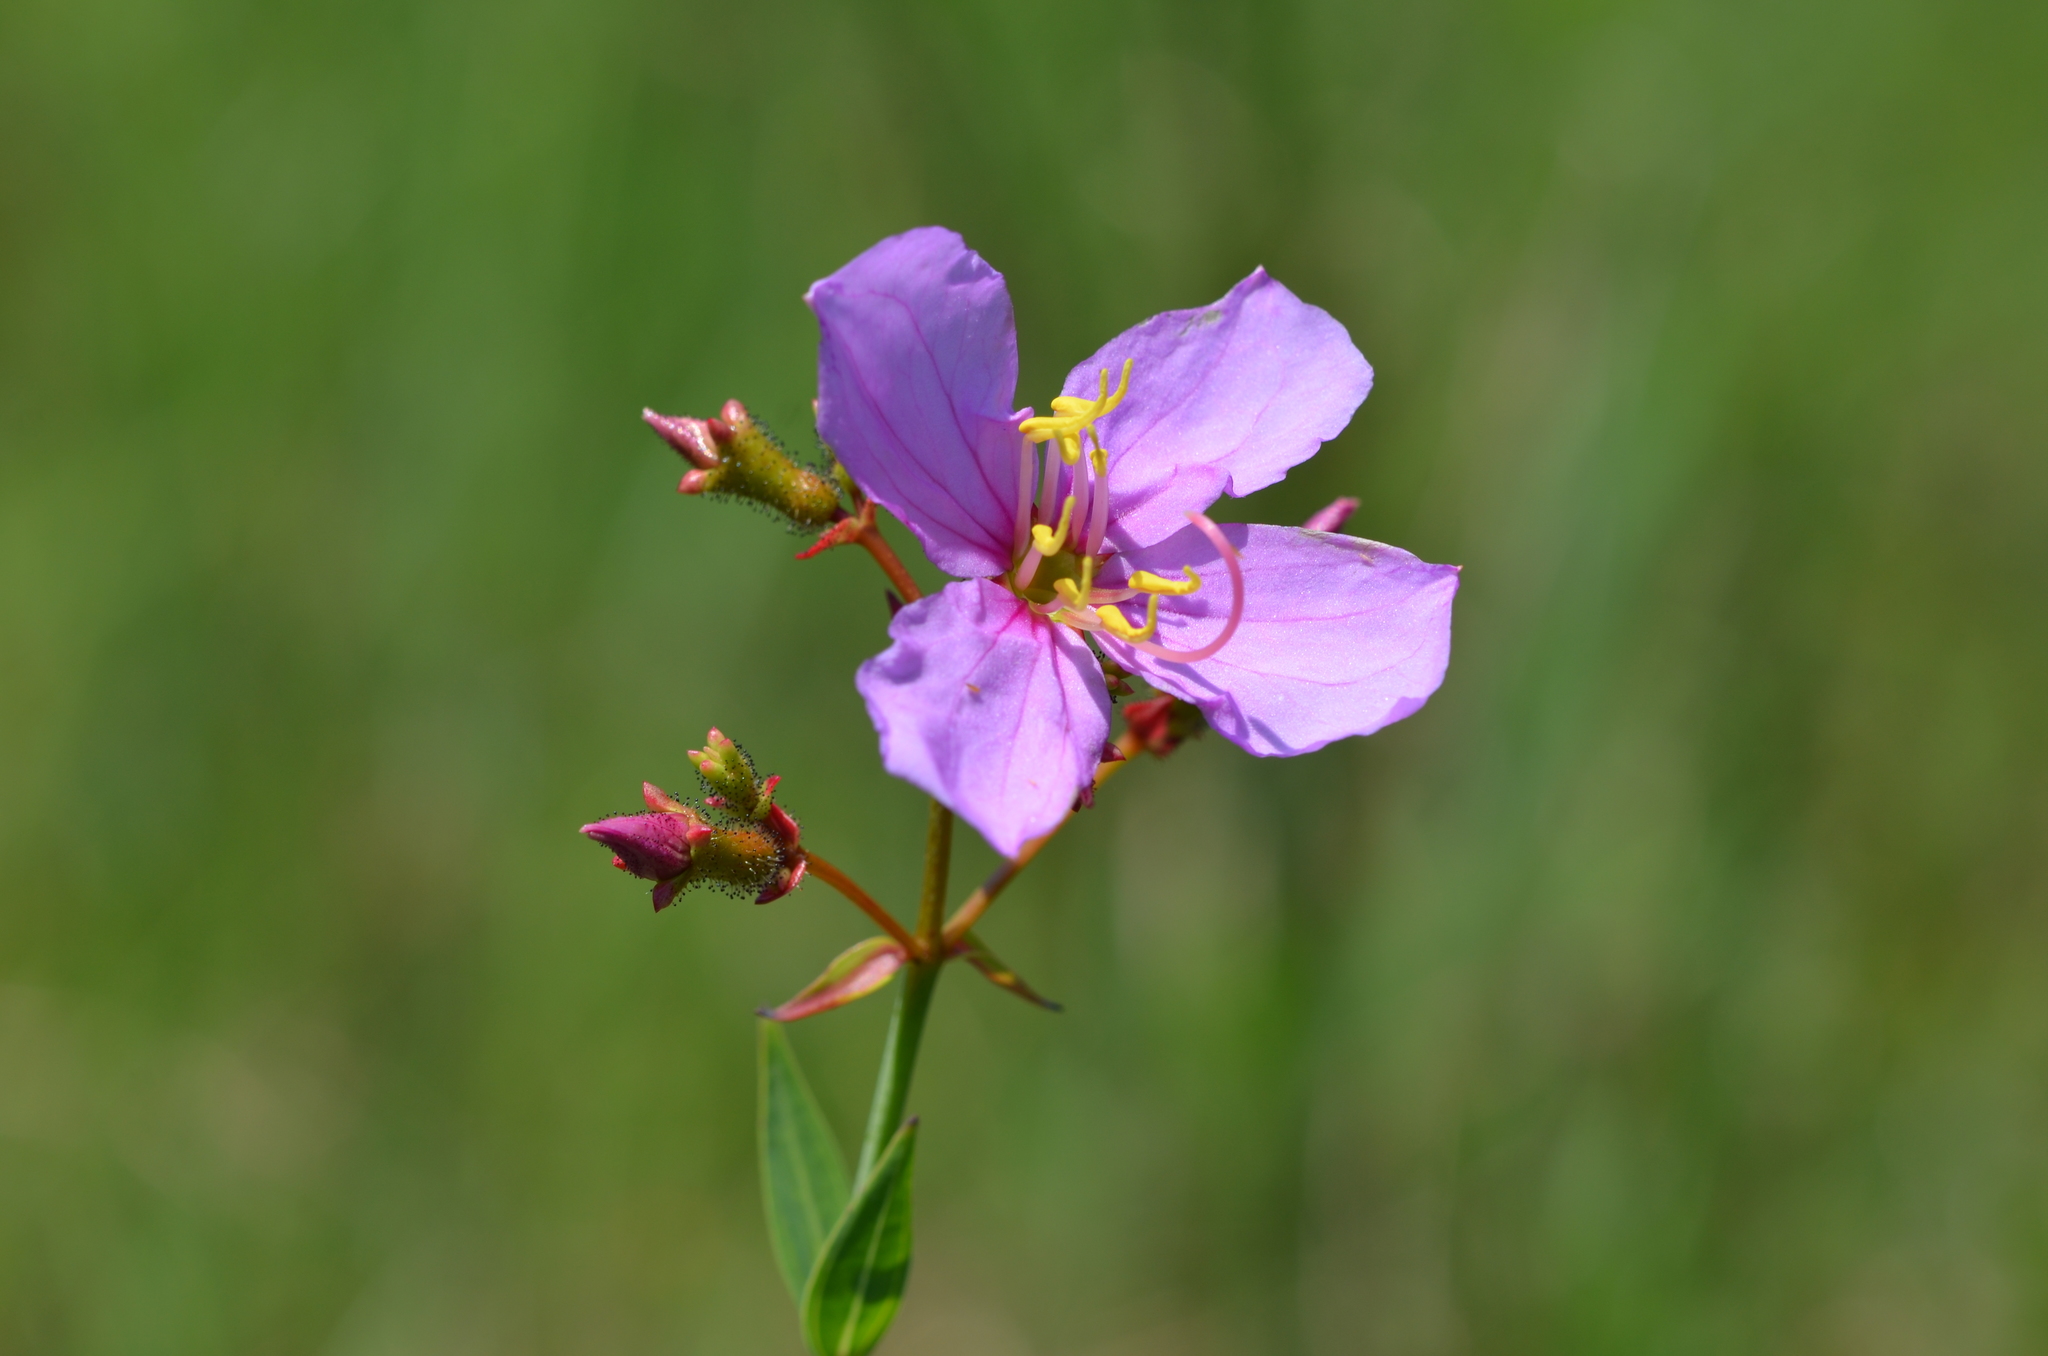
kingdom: Plantae
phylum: Tracheophyta
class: Magnoliopsida
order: Myrtales
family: Melastomataceae
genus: Rhexia
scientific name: Rhexia alifanus
